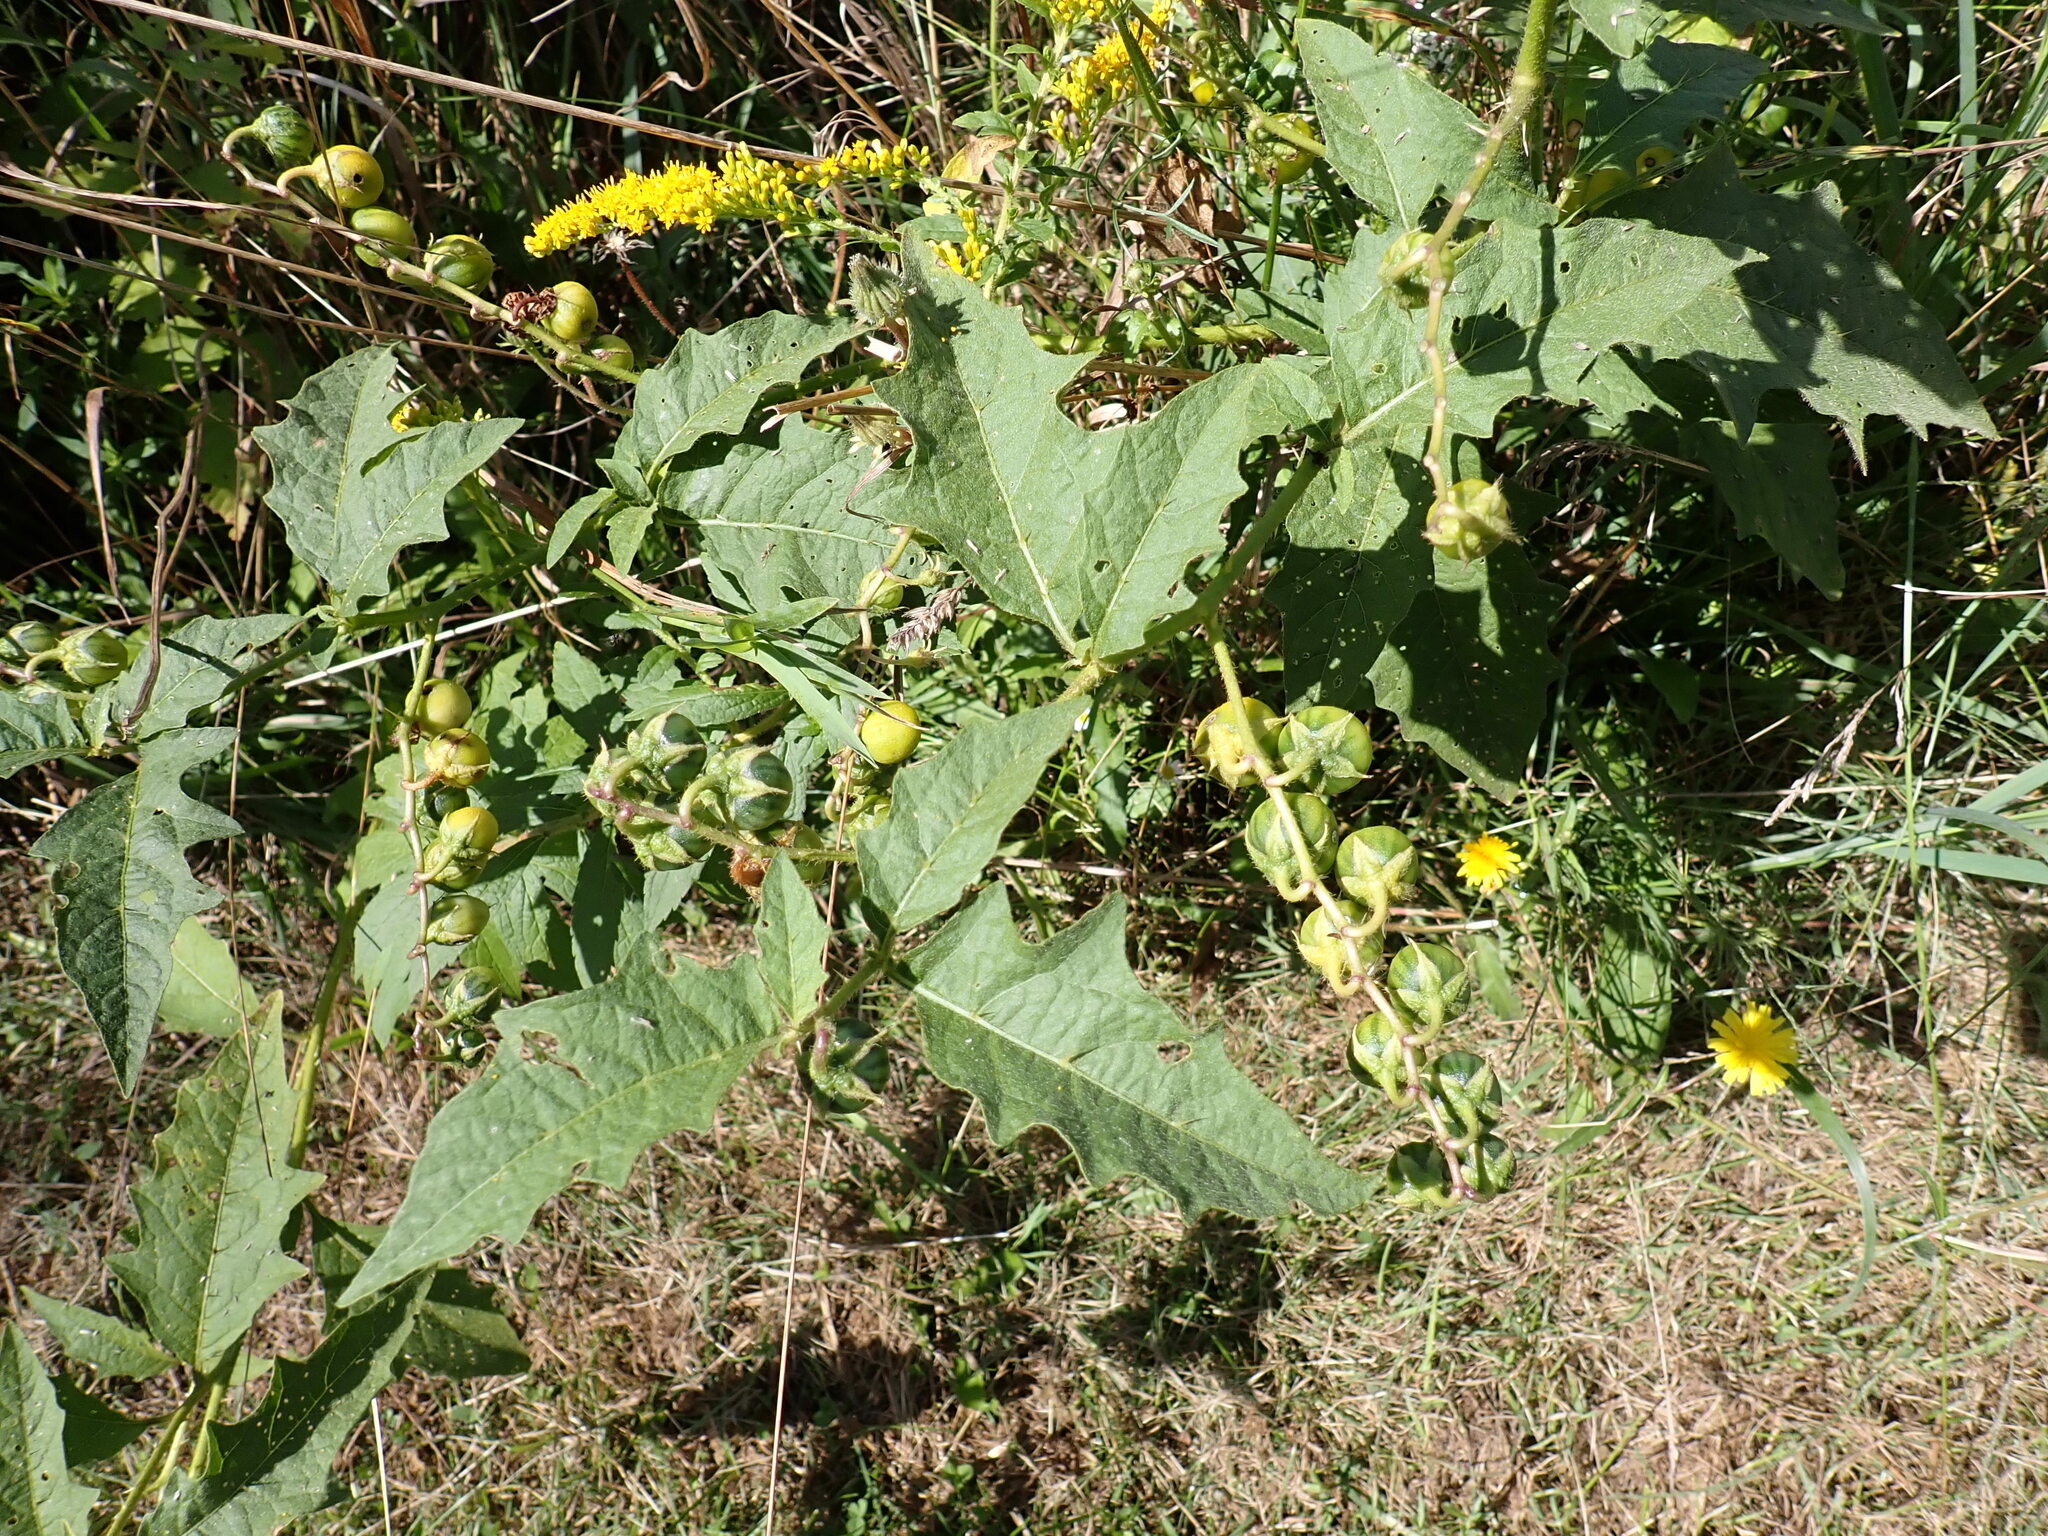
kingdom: Plantae
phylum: Tracheophyta
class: Magnoliopsida
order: Solanales
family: Solanaceae
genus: Solanum
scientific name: Solanum carolinense
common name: Horse-nettle
